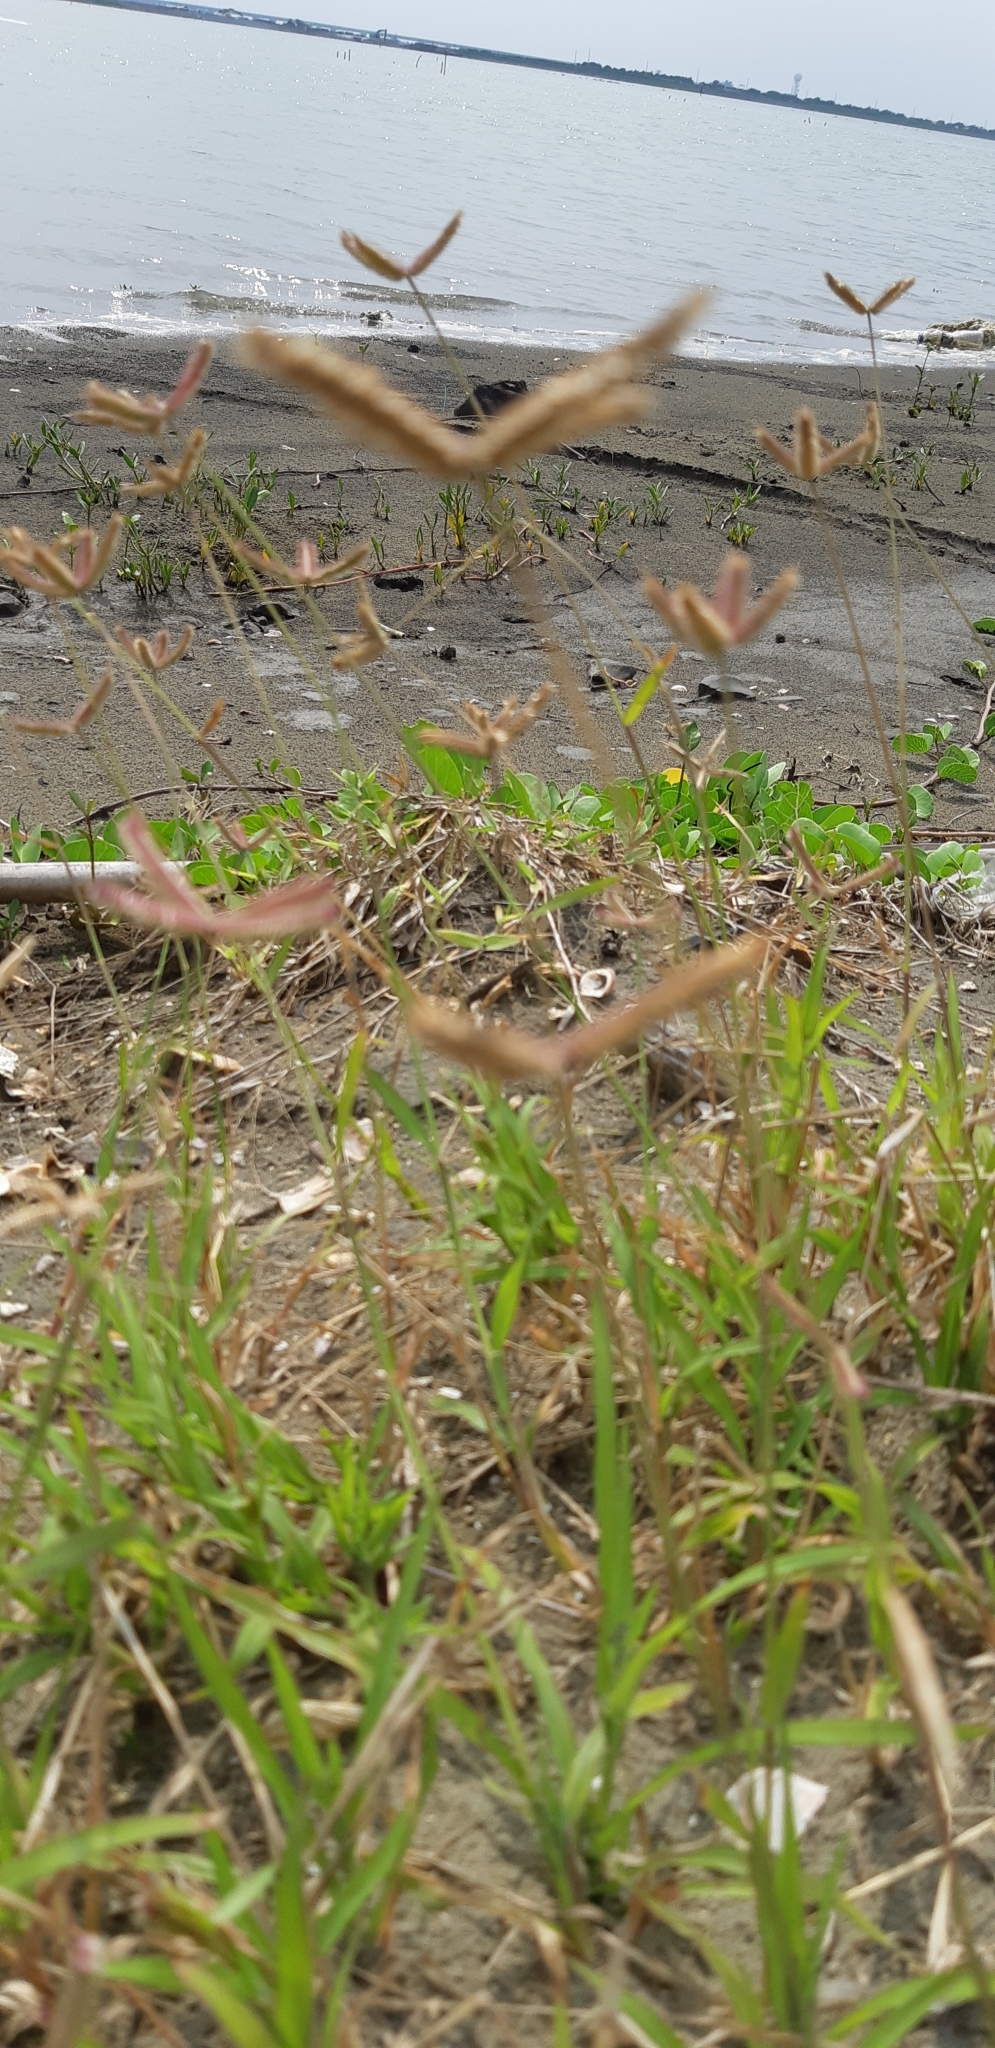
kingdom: Plantae
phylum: Tracheophyta
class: Liliopsida
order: Poales
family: Poaceae
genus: Dactyloctenium
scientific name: Dactyloctenium aegyptium
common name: Egyptian grass
